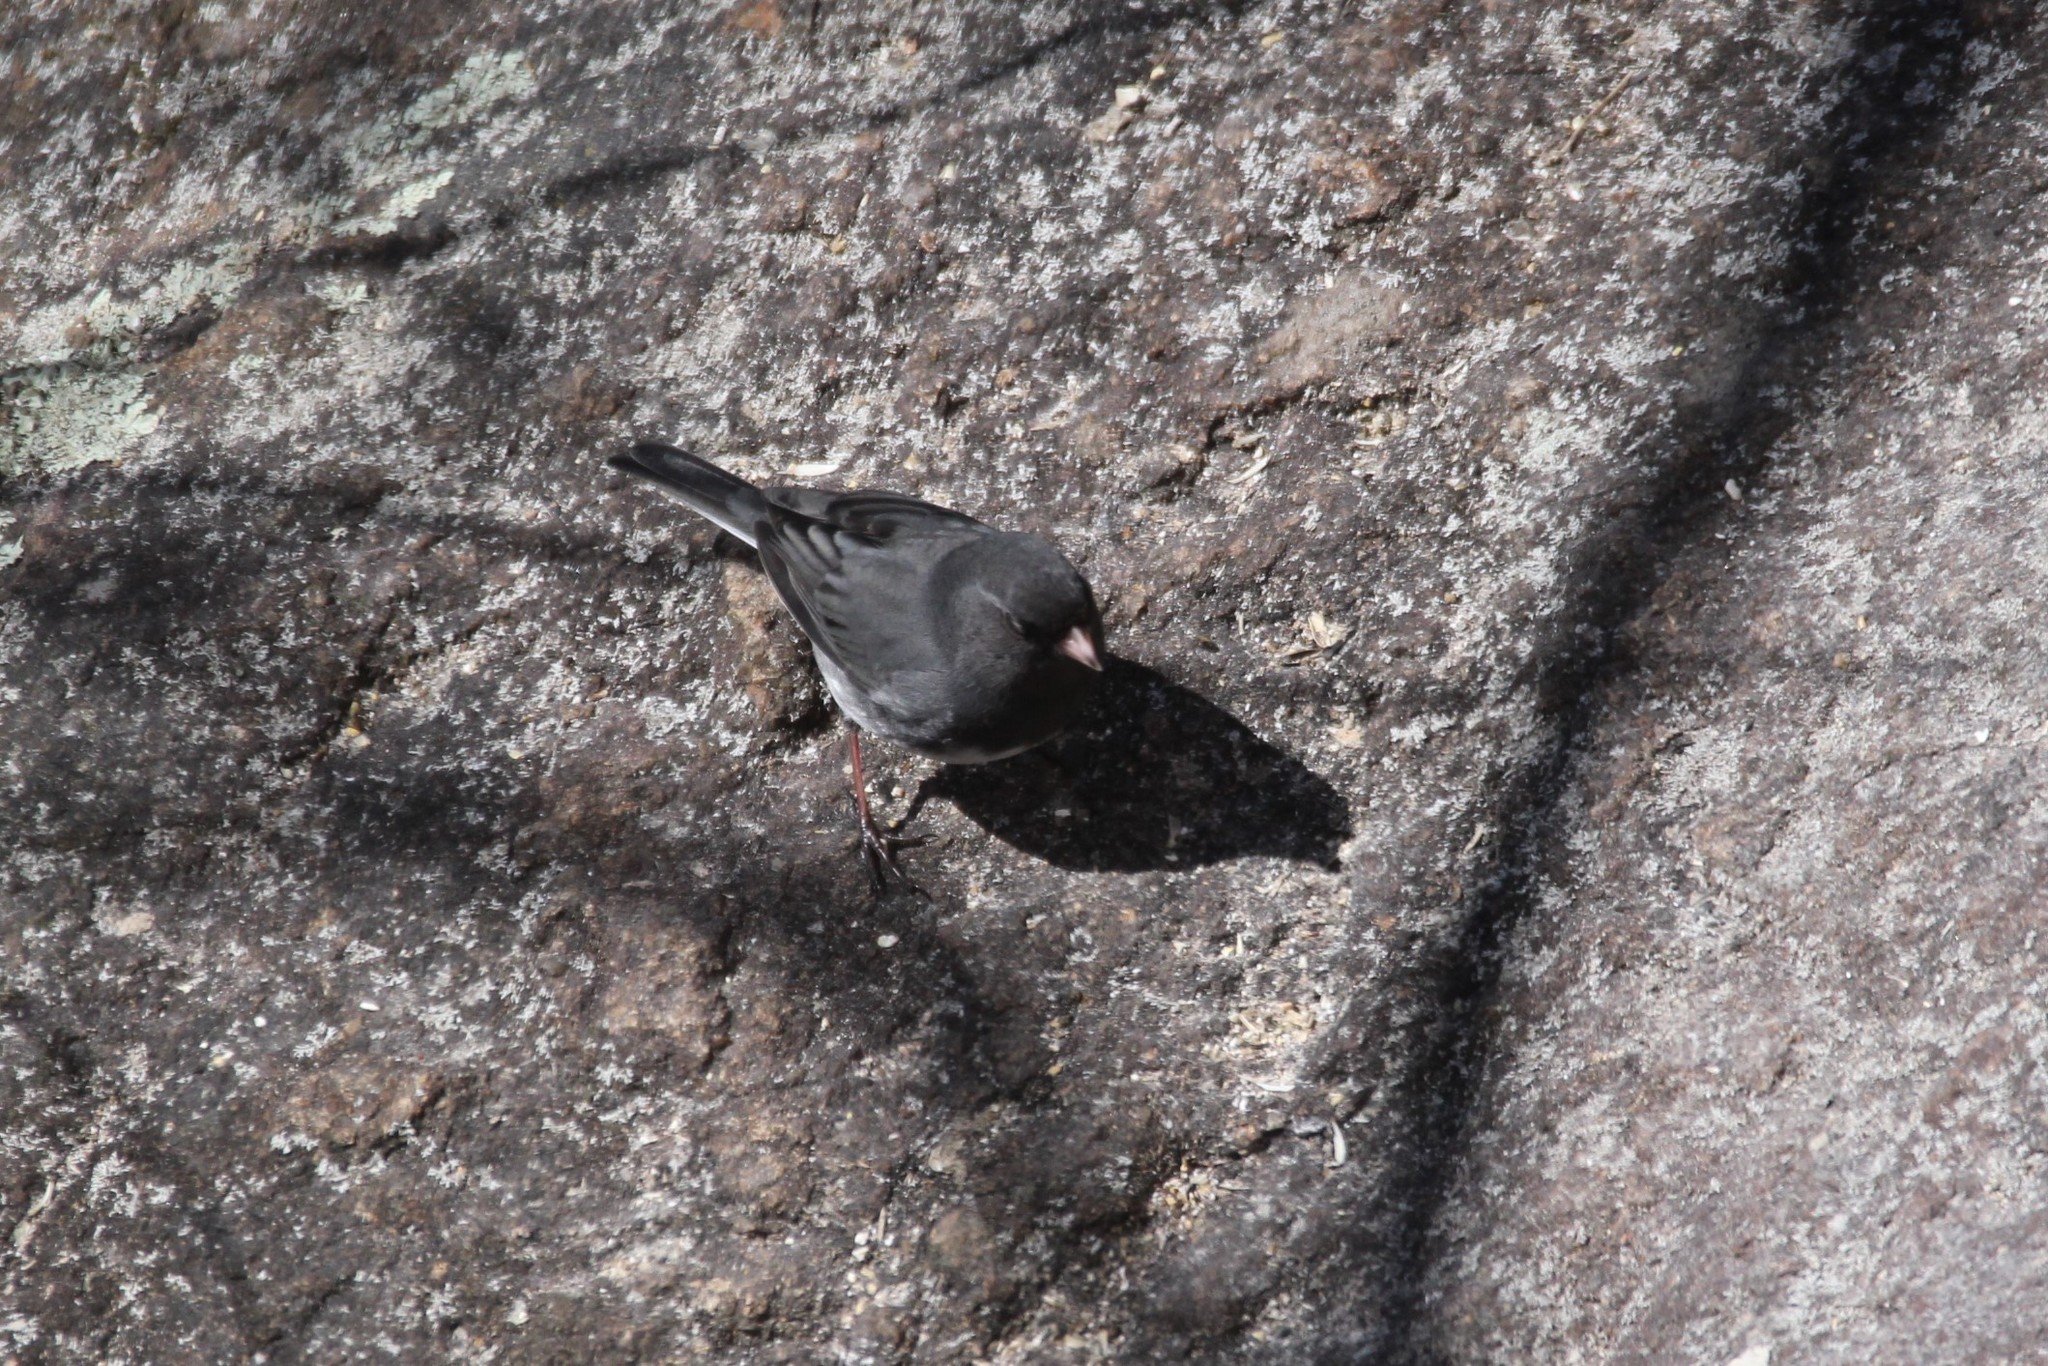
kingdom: Animalia
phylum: Chordata
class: Aves
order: Passeriformes
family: Passerellidae
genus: Junco
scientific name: Junco hyemalis
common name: Dark-eyed junco
